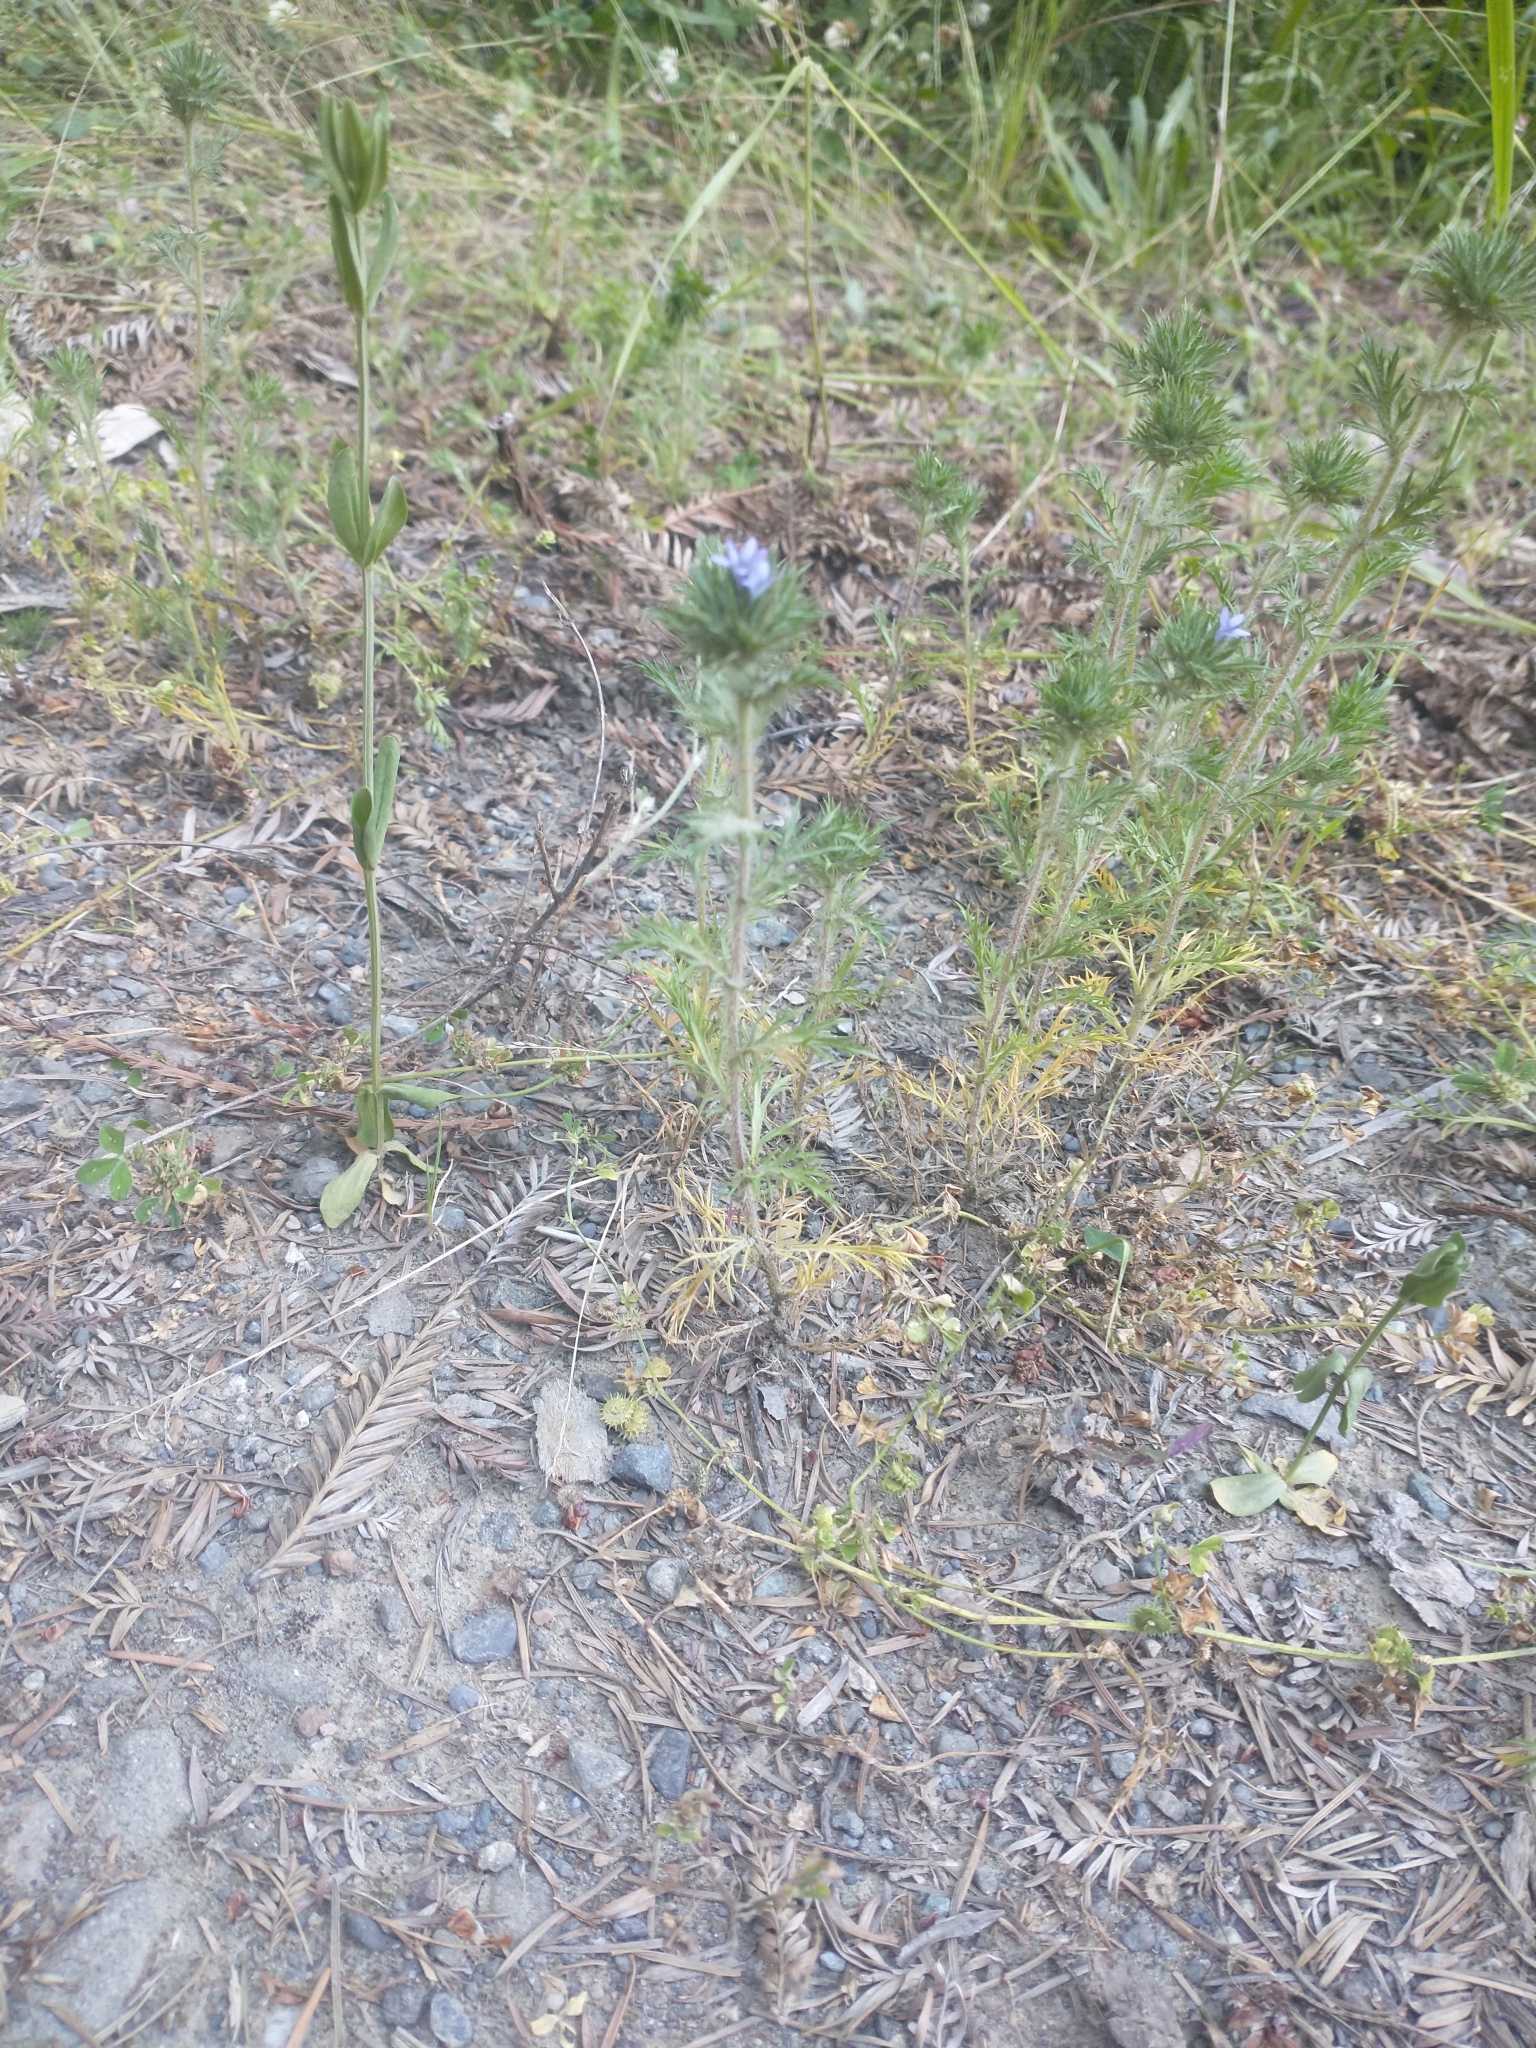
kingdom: Plantae
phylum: Tracheophyta
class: Magnoliopsida
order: Ericales
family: Polemoniaceae
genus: Navarretia
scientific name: Navarretia squarrosa
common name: Skunkweed
